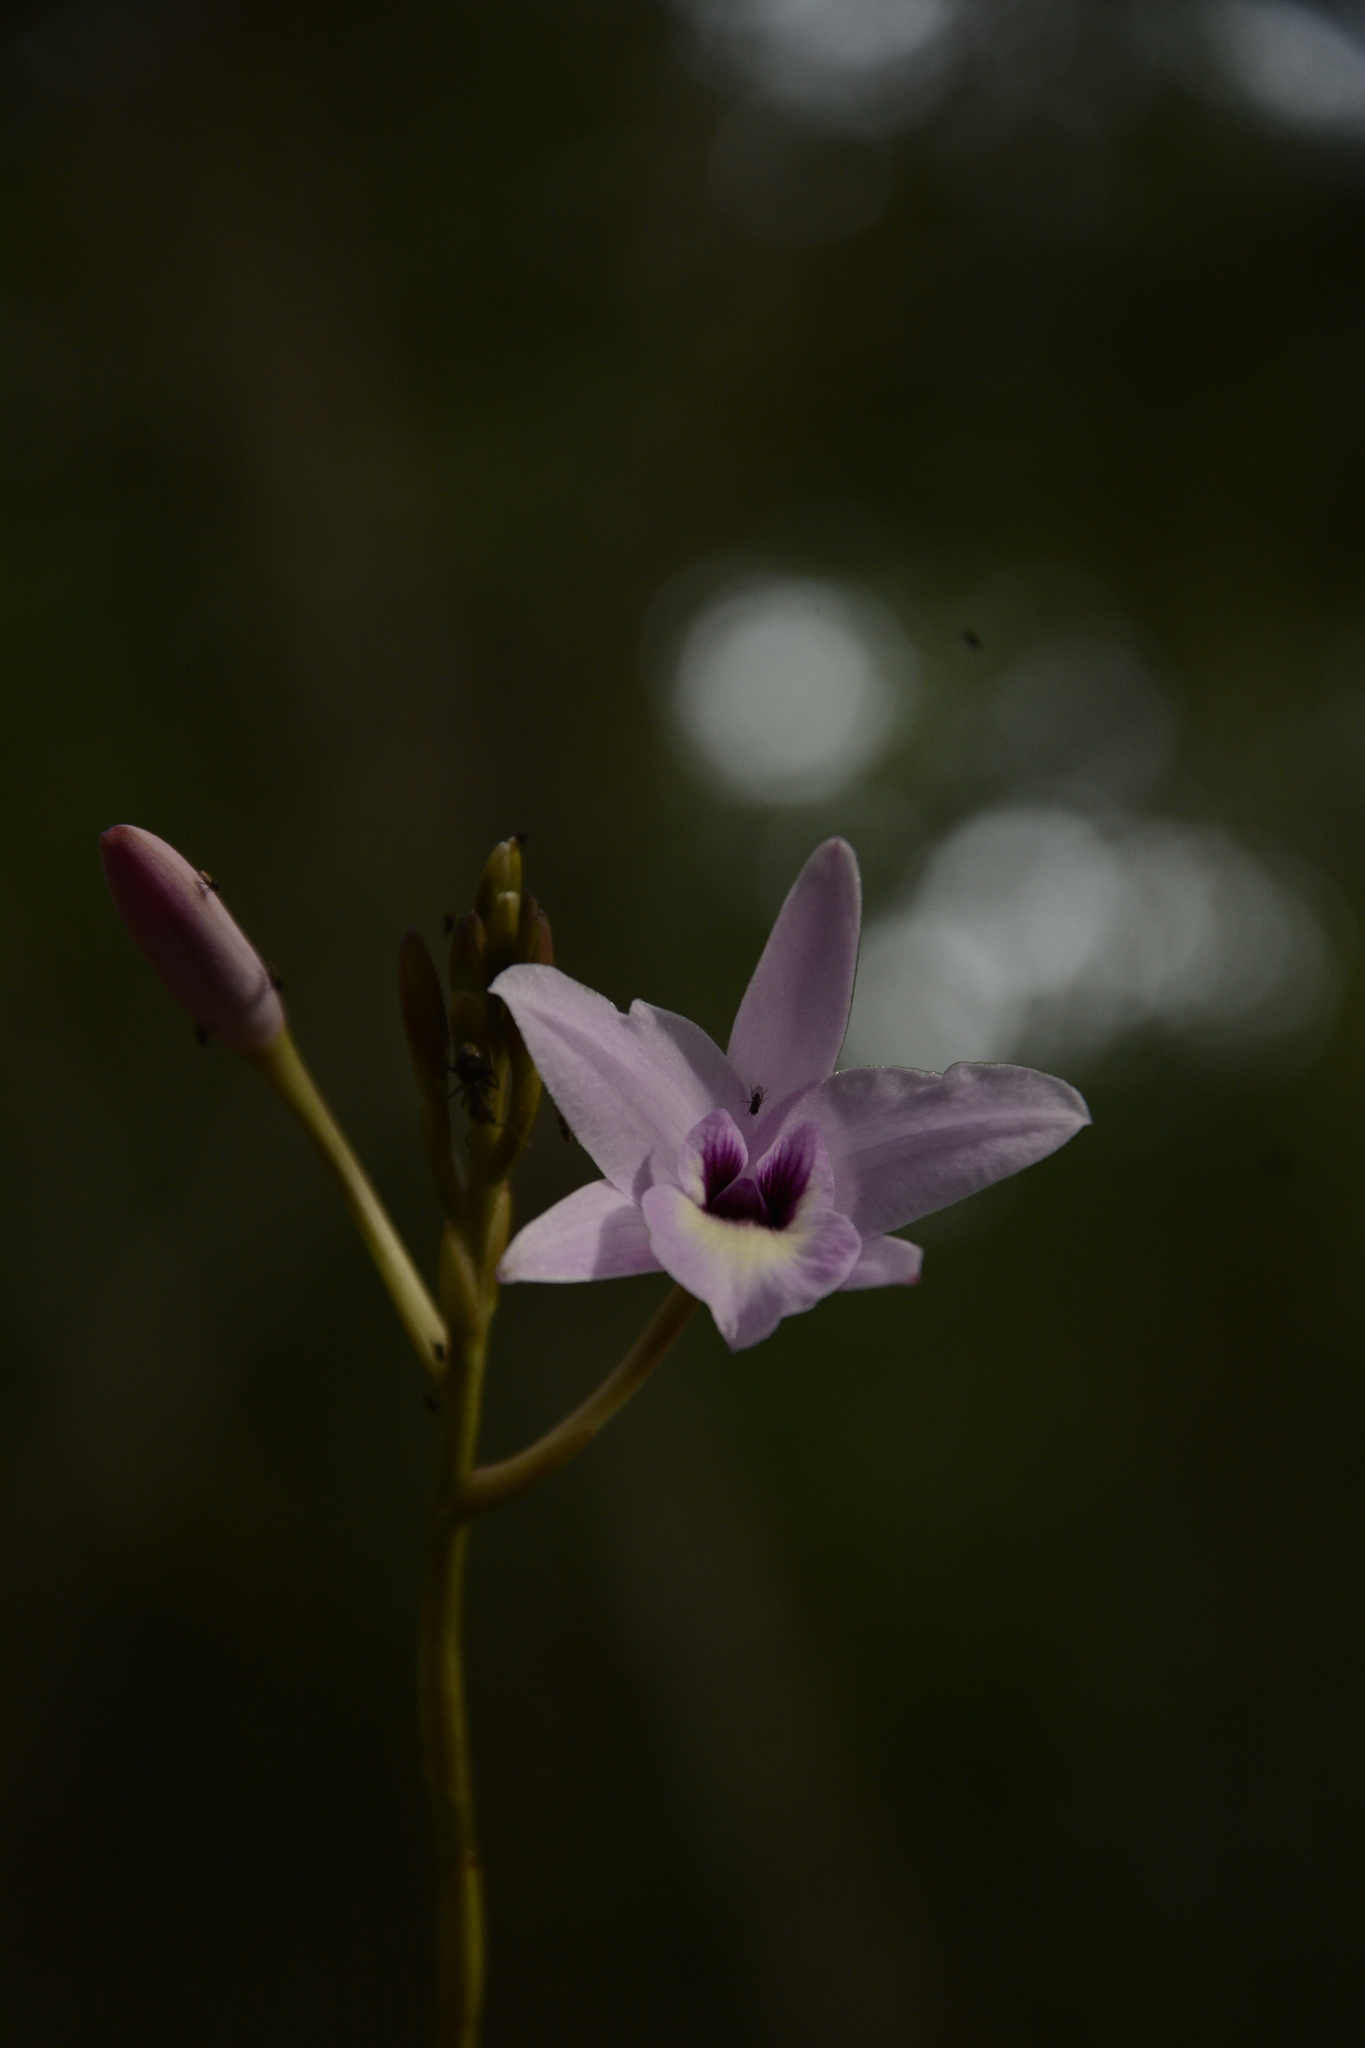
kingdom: Plantae
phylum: Tracheophyta
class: Liliopsida
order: Asparagales
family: Orchidaceae
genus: Laelia
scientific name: Laelia rubescens
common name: Pale laelia
